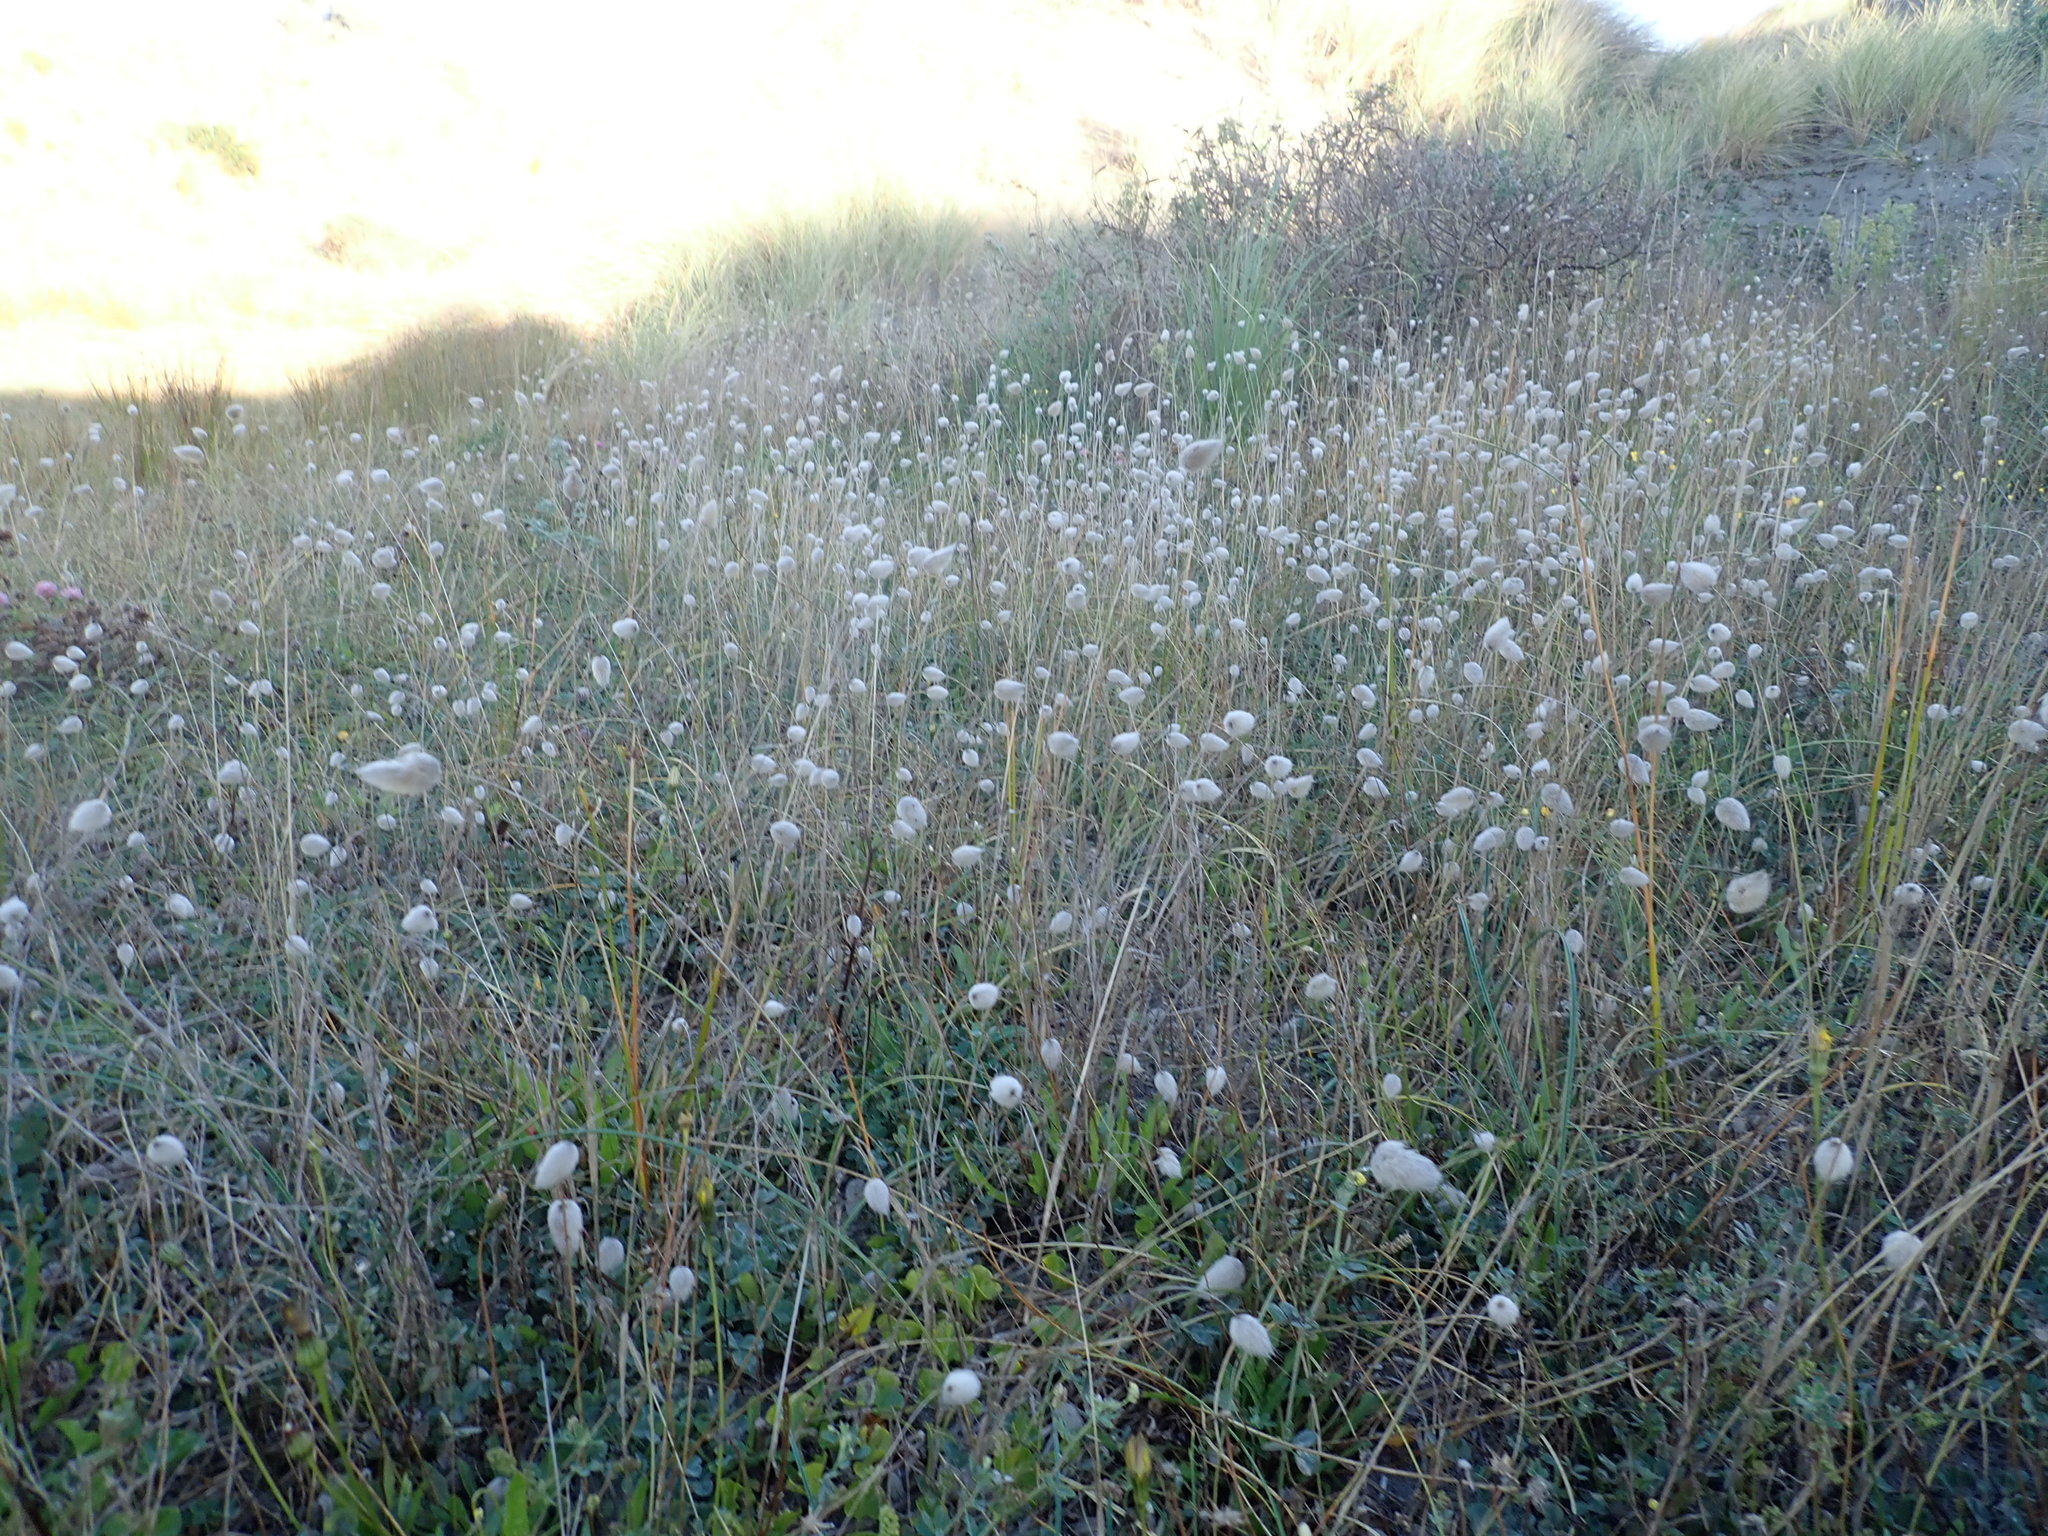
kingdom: Plantae
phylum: Tracheophyta
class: Liliopsida
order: Poales
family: Poaceae
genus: Lagurus
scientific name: Lagurus ovatus
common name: Hare's-tail
